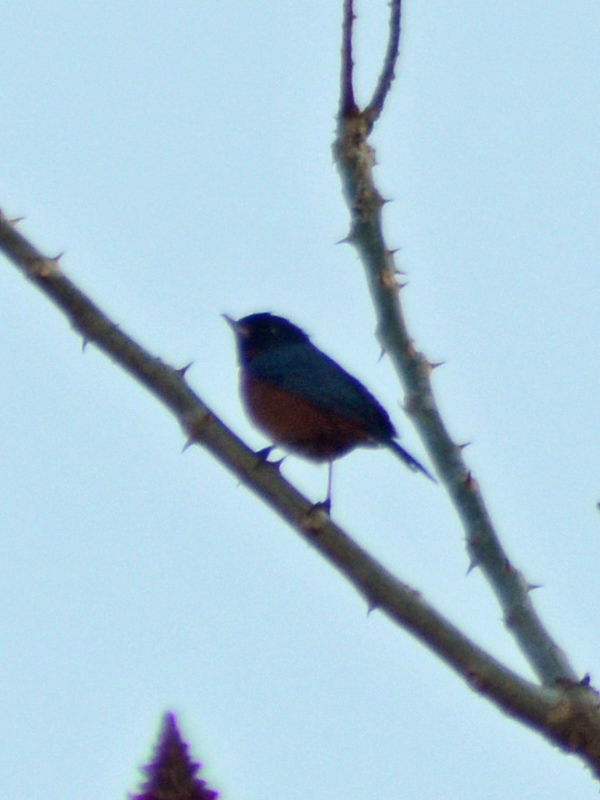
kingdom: Animalia
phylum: Chordata
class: Aves
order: Passeriformes
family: Thraupidae
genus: Diglossa
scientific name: Diglossa baritula
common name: Cinnamon-bellied flowerpiercer
